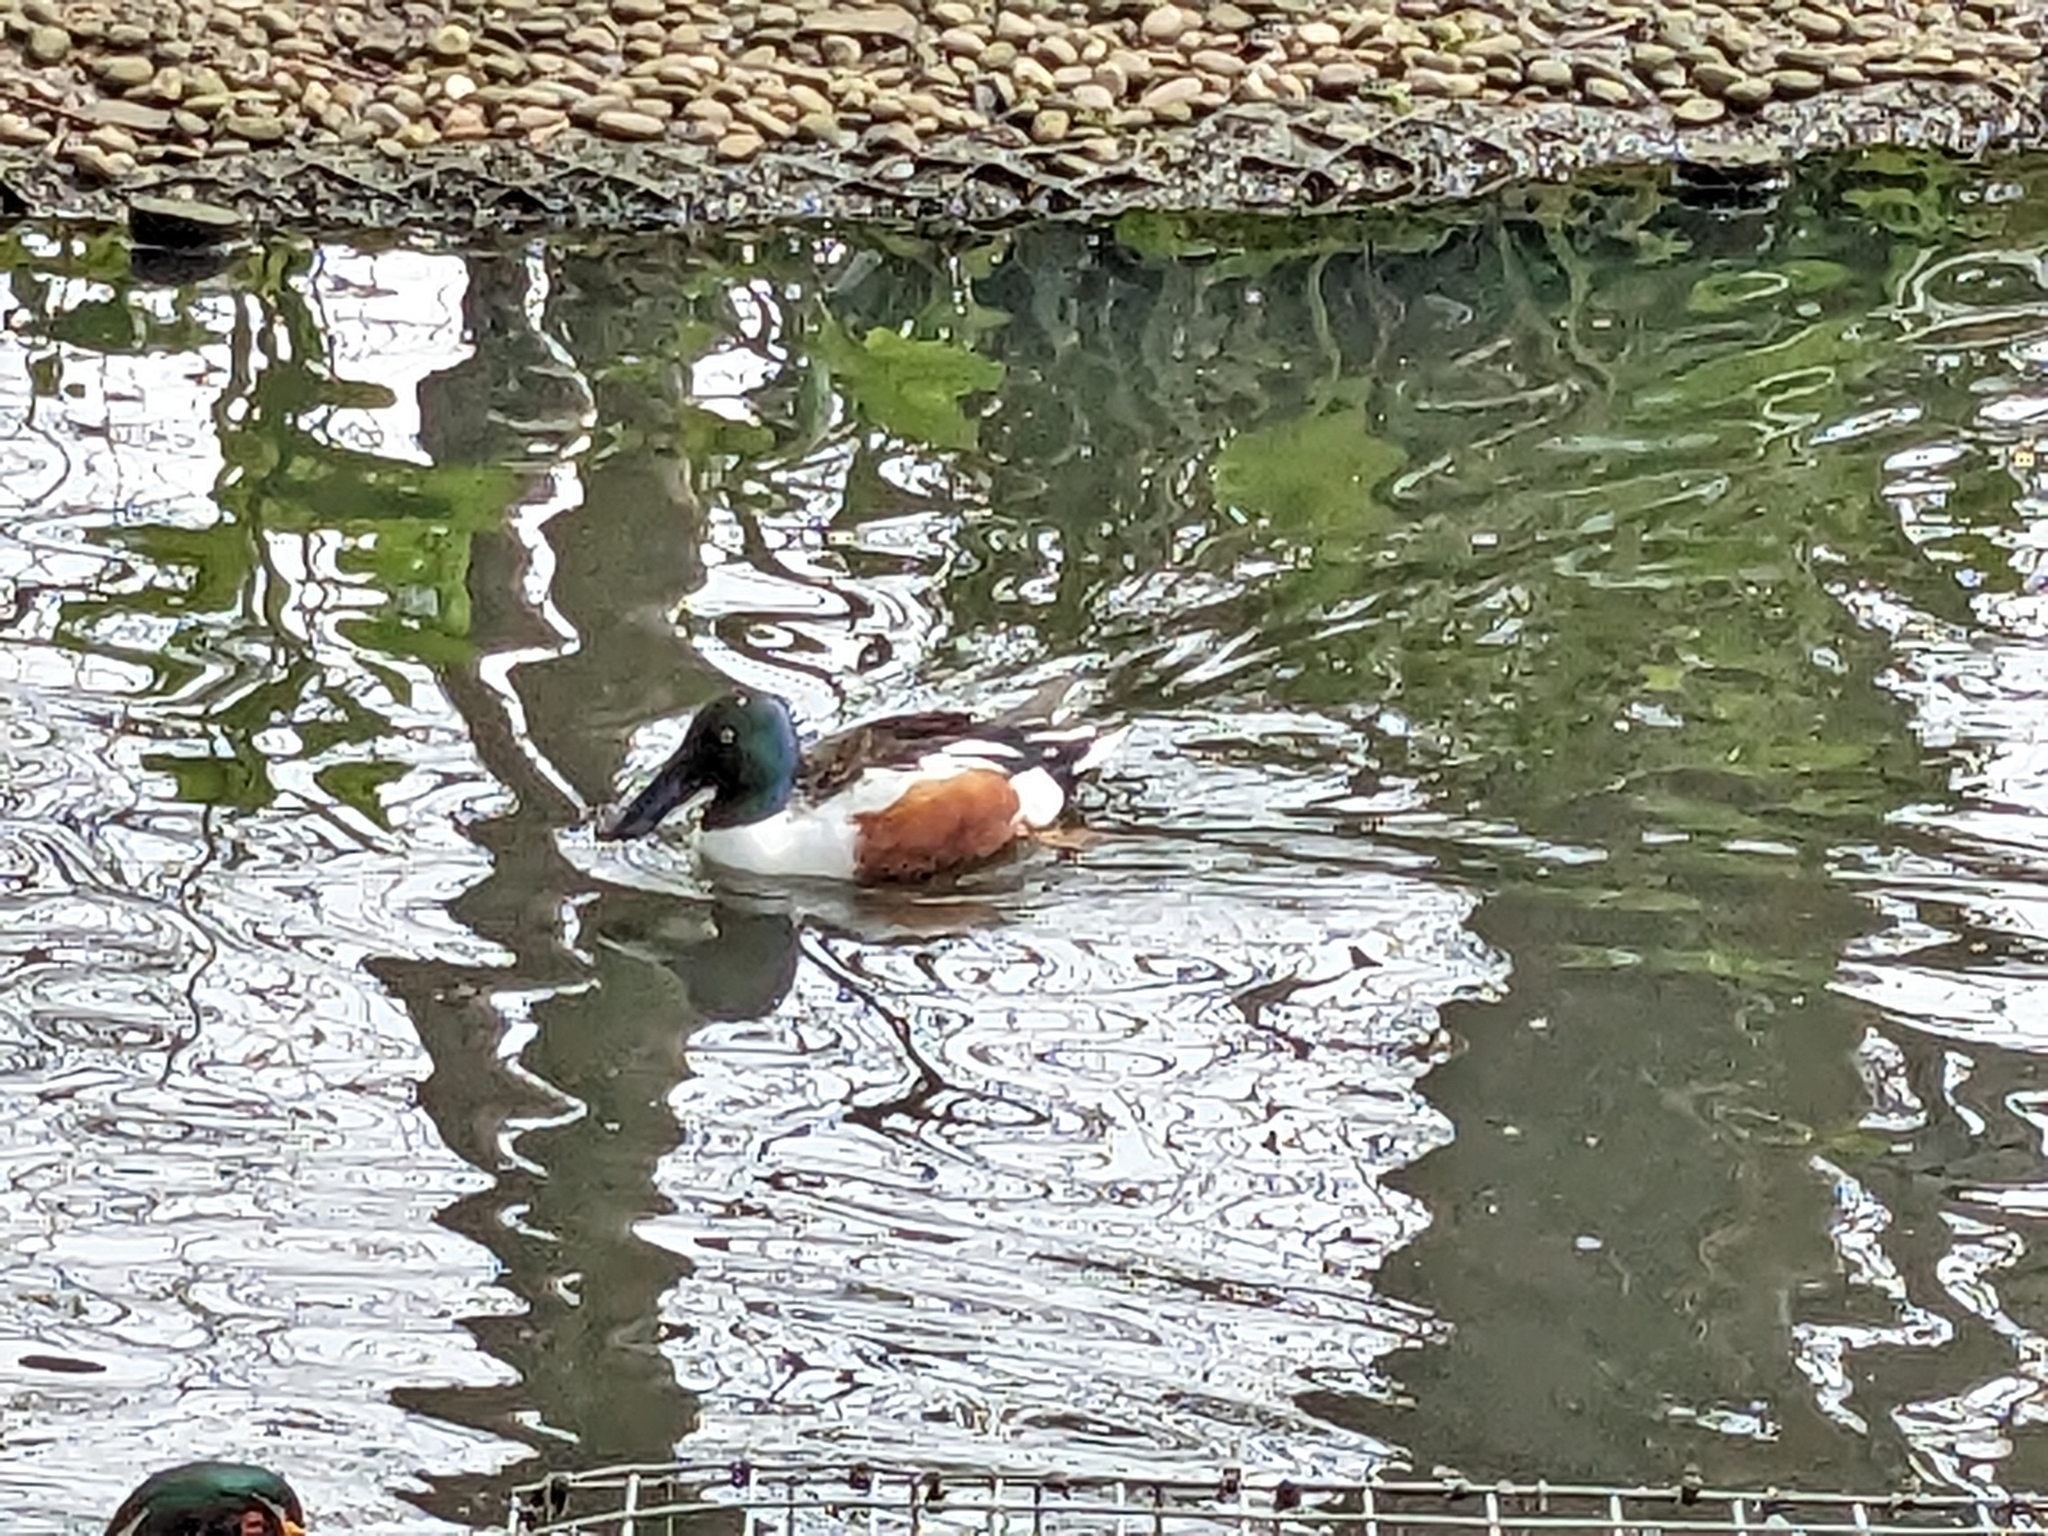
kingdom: Animalia
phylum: Chordata
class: Aves
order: Anseriformes
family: Anatidae
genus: Spatula
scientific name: Spatula clypeata
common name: Northern shoveler
